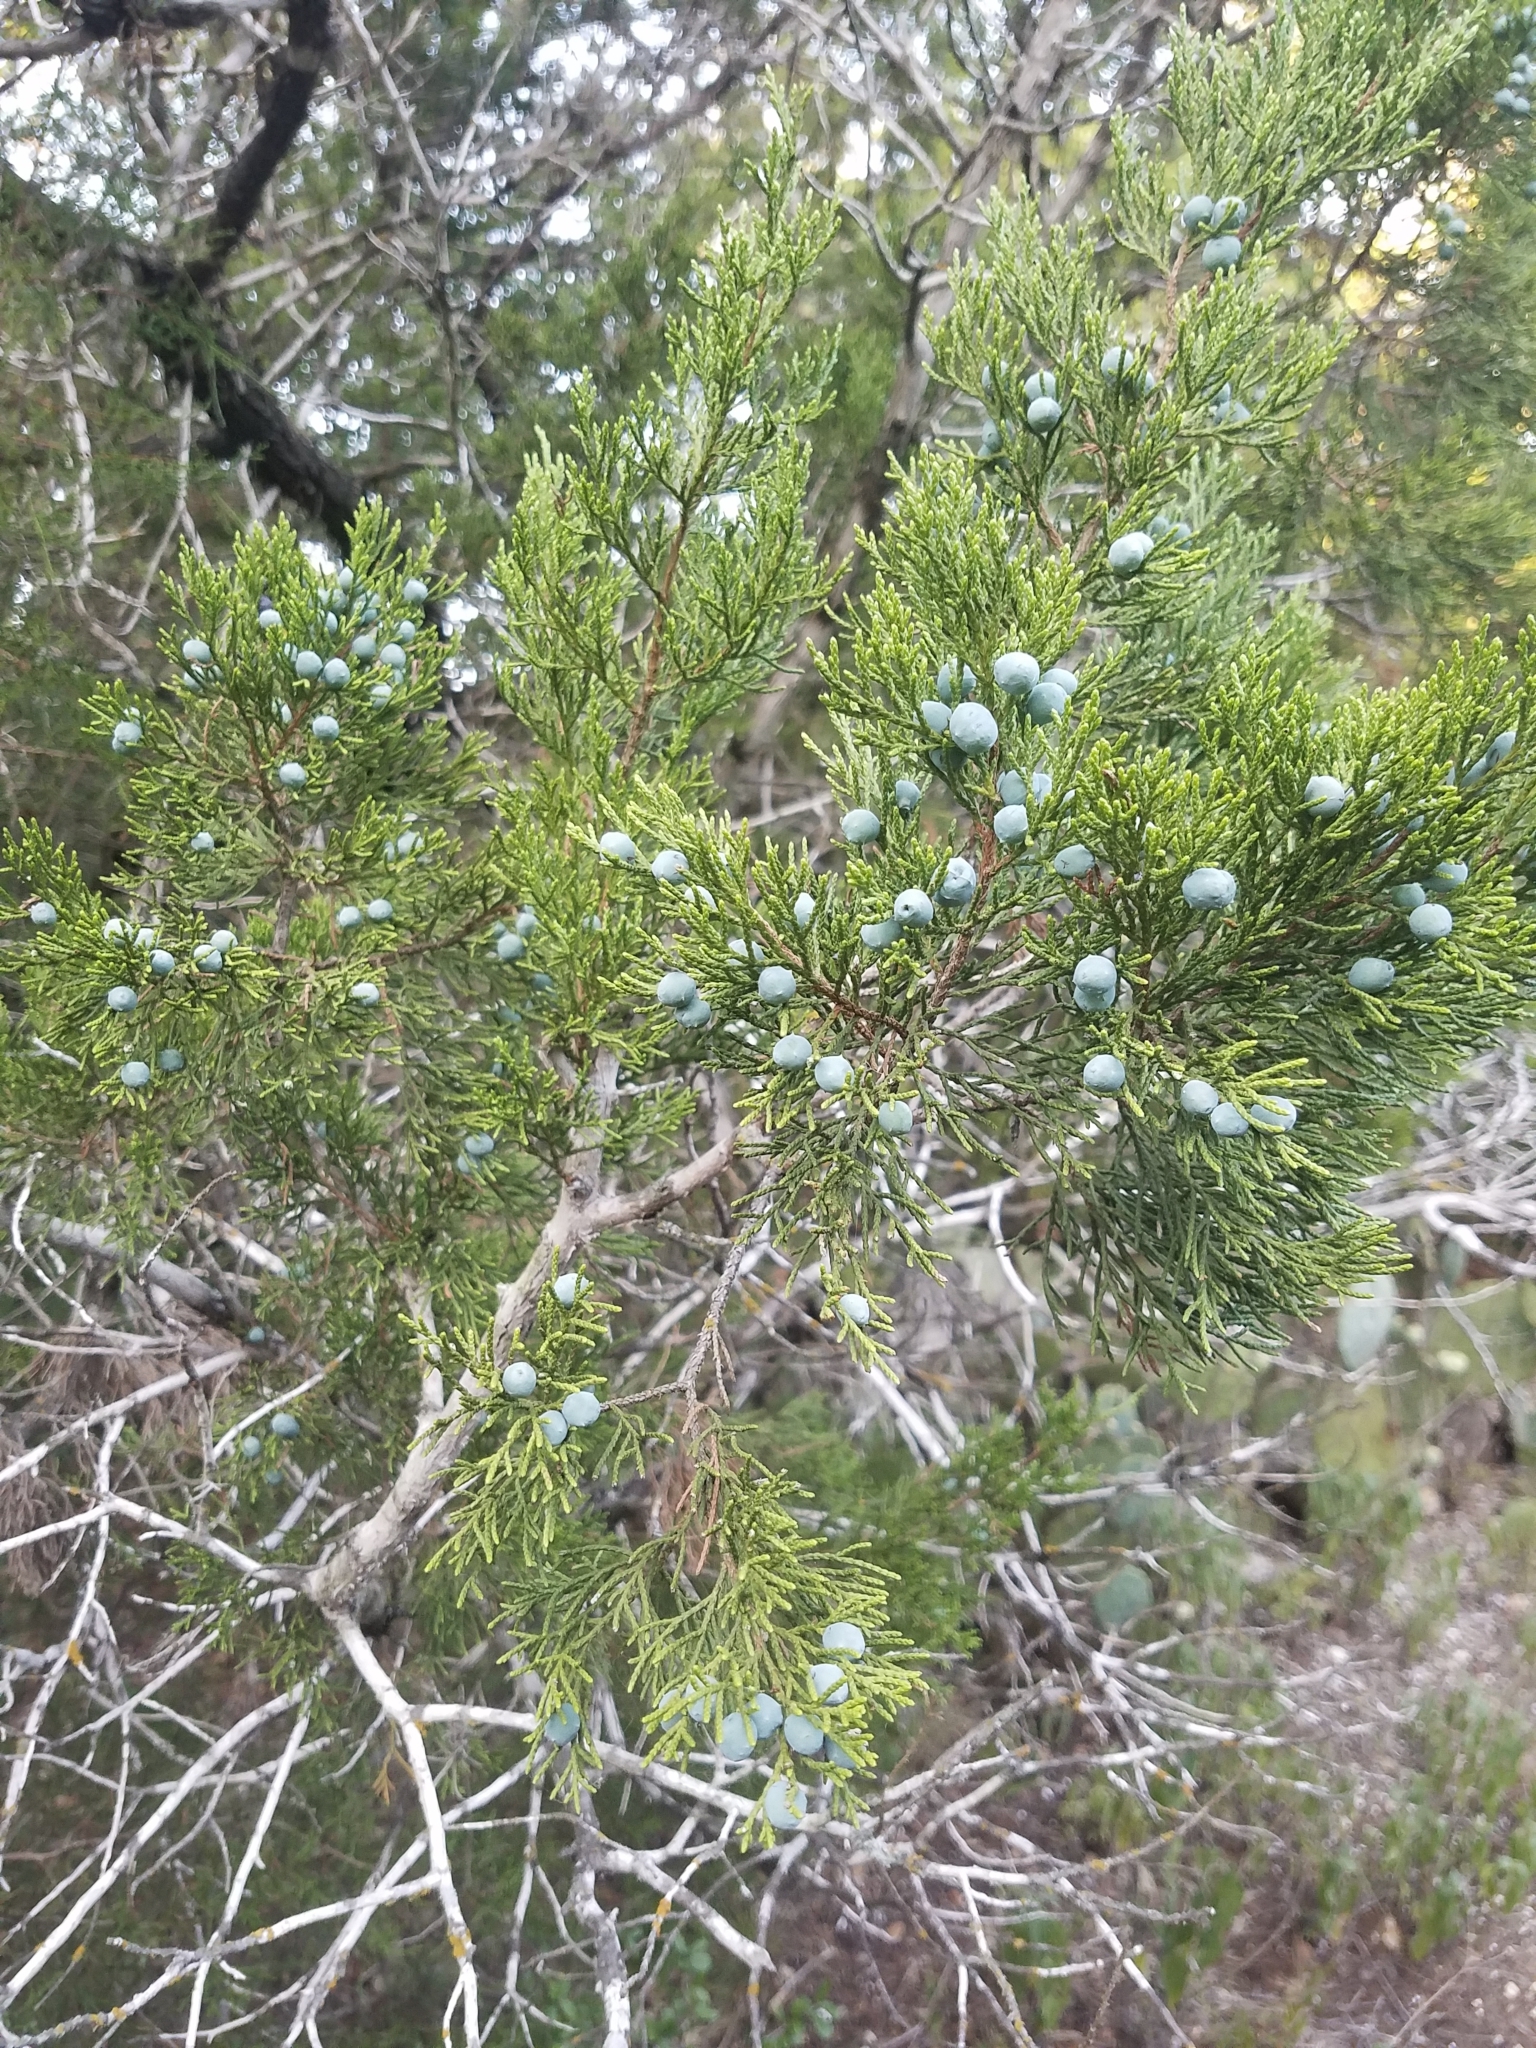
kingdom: Plantae
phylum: Tracheophyta
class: Pinopsida
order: Pinales
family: Cupressaceae
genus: Juniperus
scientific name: Juniperus ashei
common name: Mexican juniper
